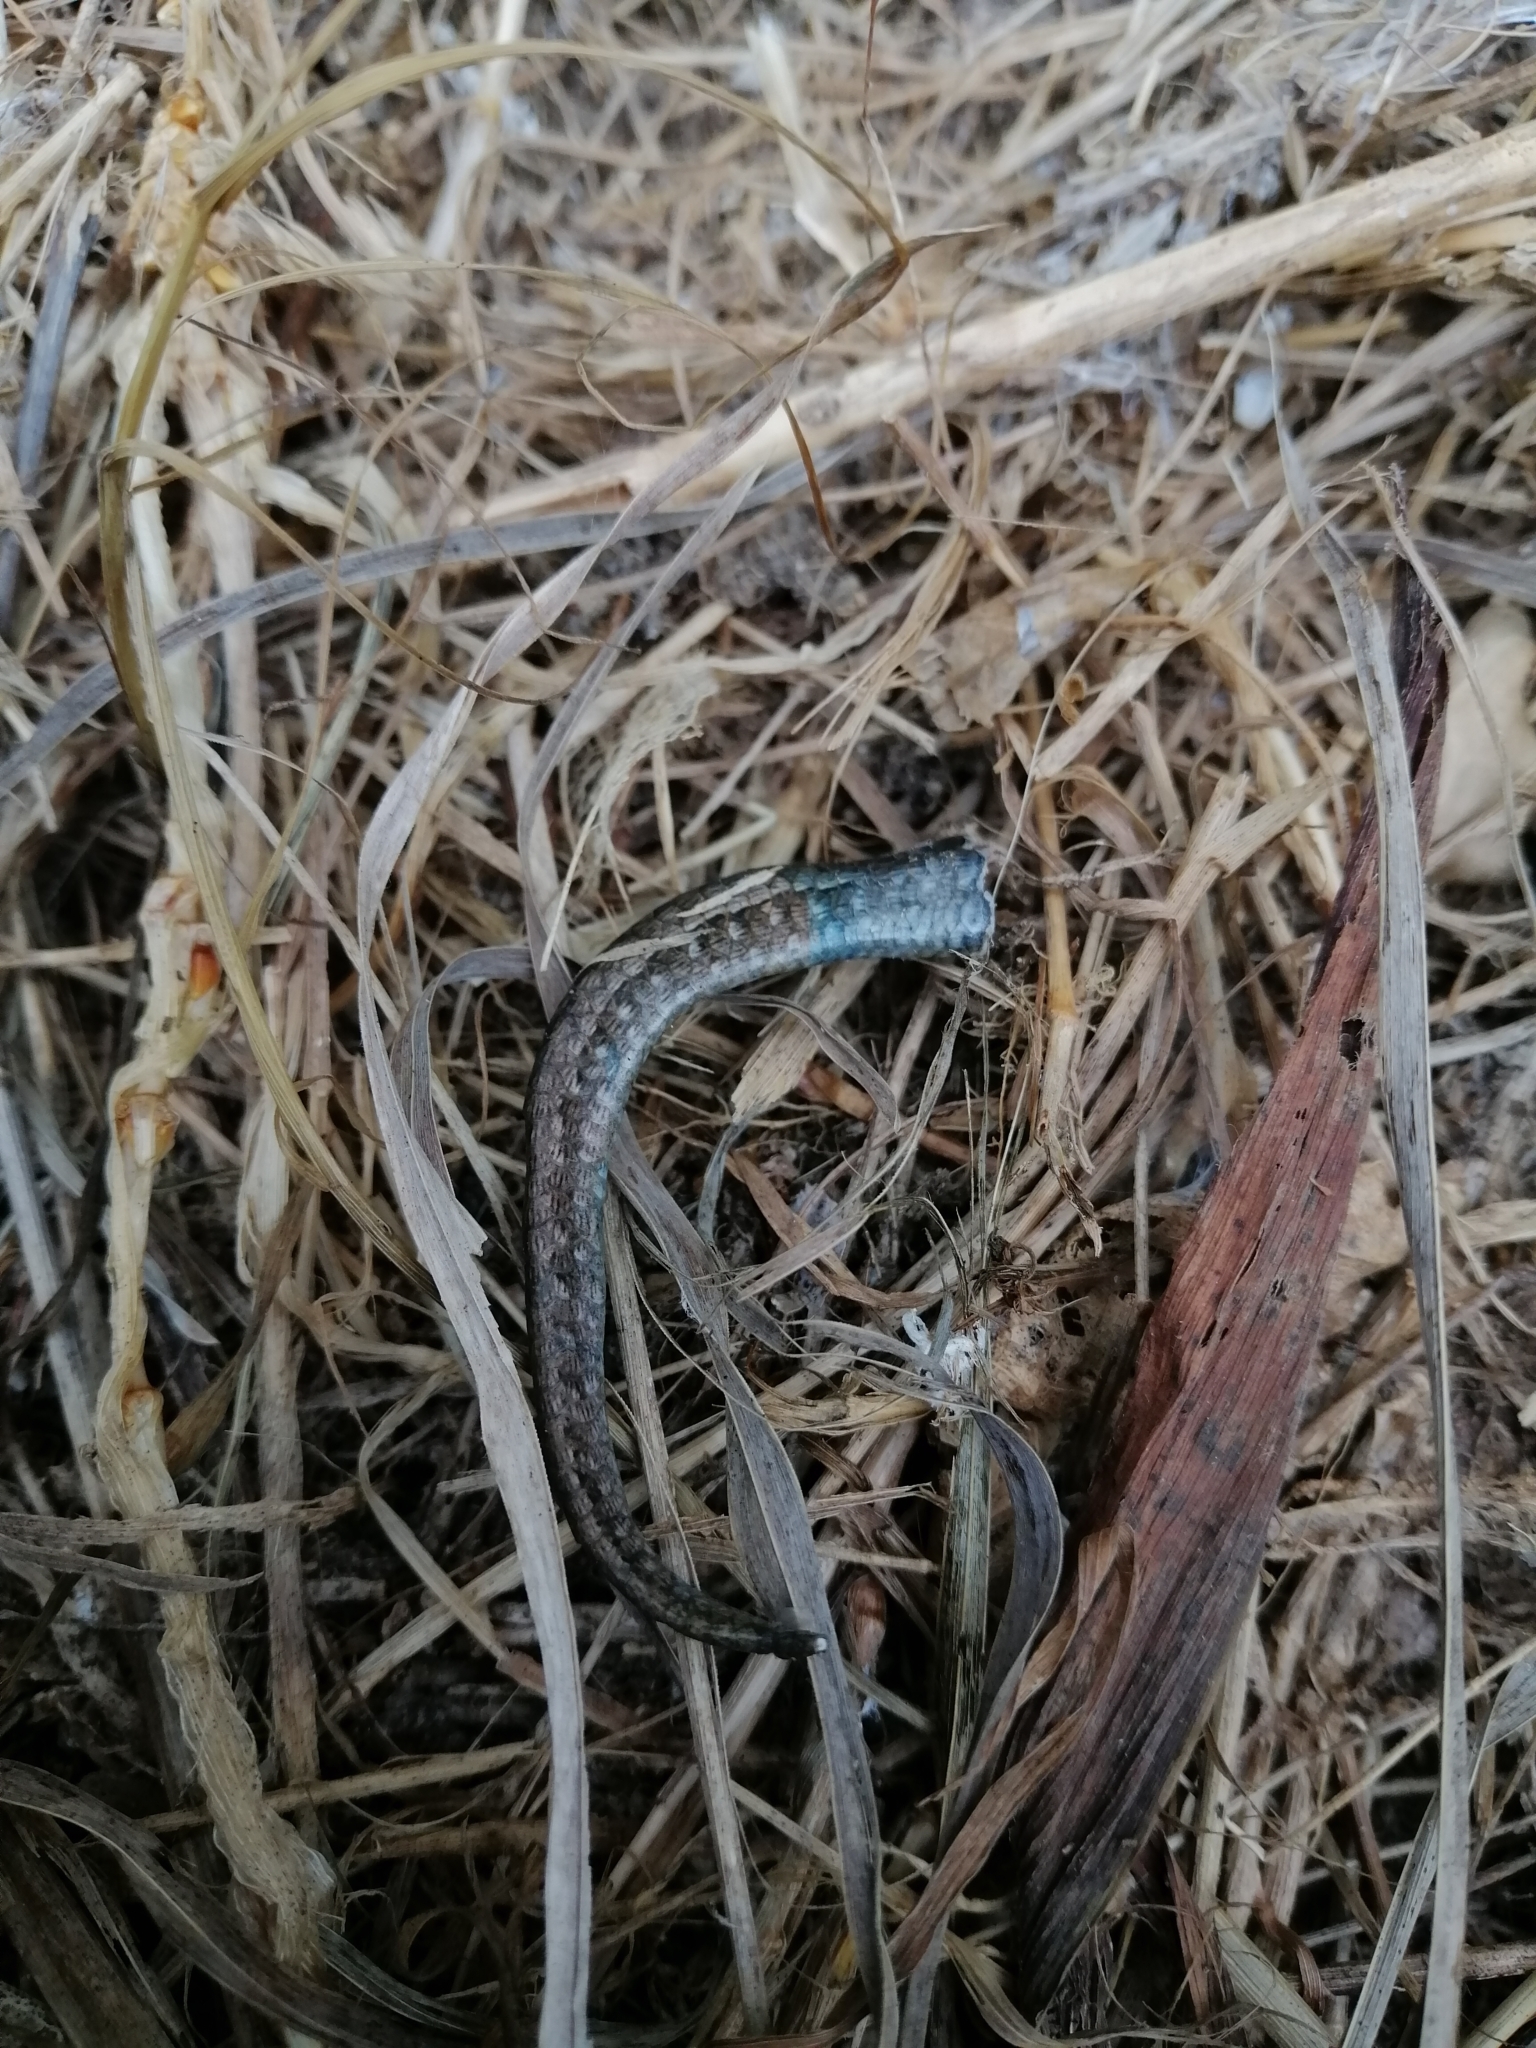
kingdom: Animalia
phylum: Chordata
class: Squamata
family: Scincidae
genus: Oligosoma
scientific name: Oligosoma polychroma
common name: Common new zealand skink
